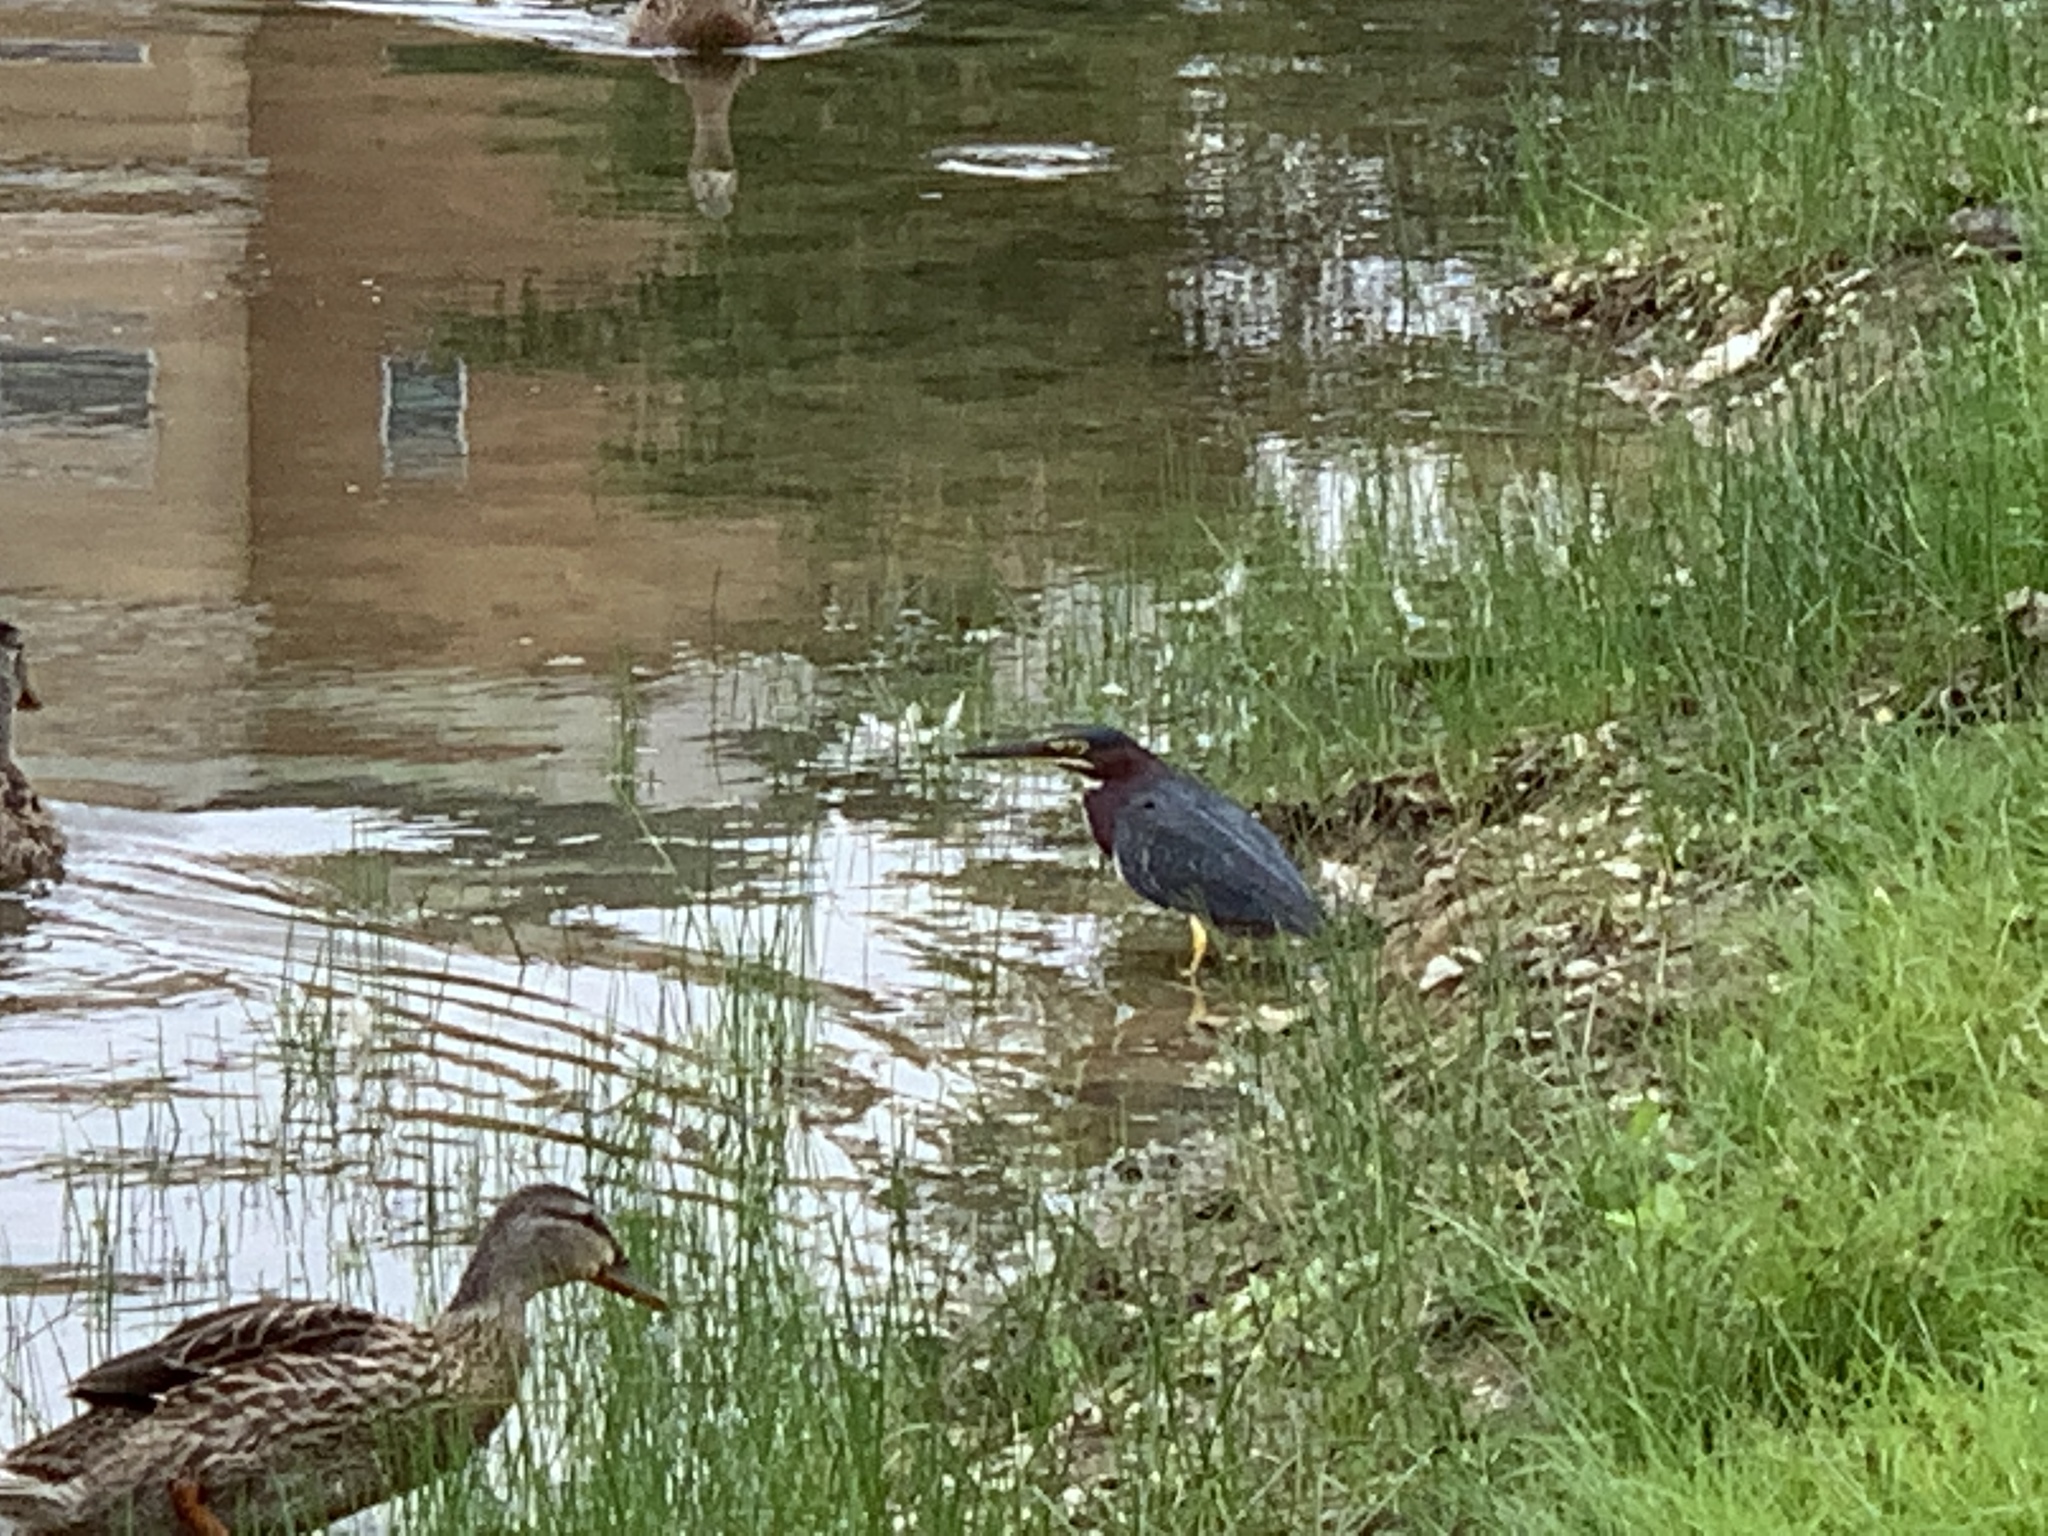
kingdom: Animalia
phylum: Chordata
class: Aves
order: Pelecaniformes
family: Ardeidae
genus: Butorides
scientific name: Butorides virescens
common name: Green heron
